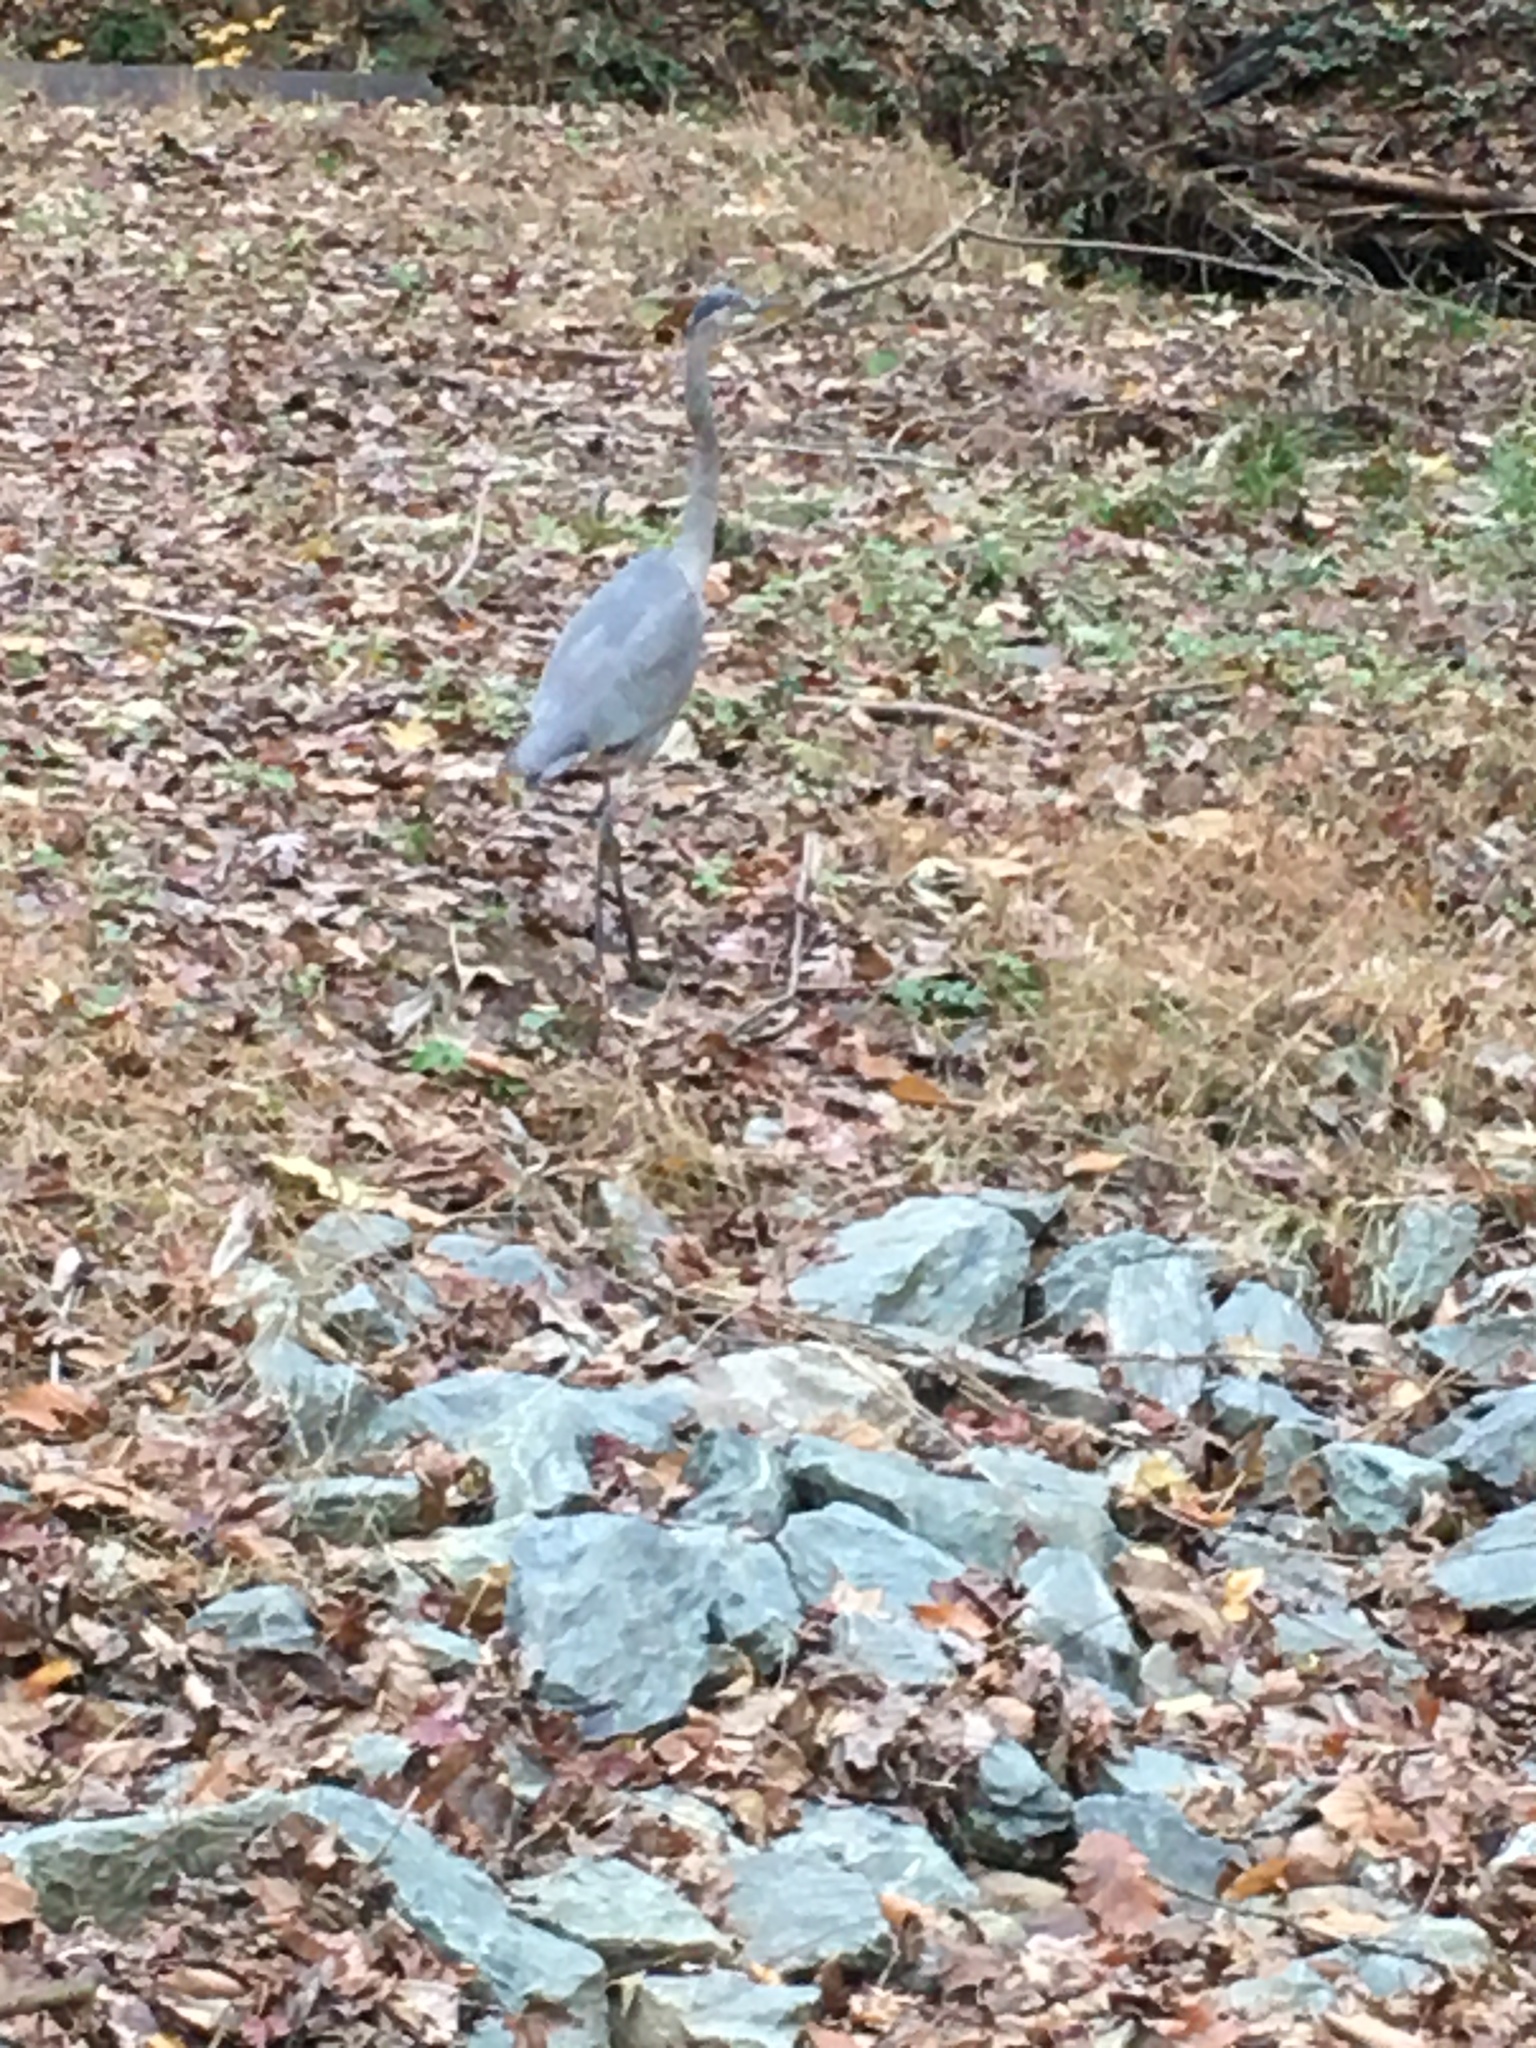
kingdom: Animalia
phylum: Chordata
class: Aves
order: Pelecaniformes
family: Ardeidae
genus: Ardea
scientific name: Ardea herodias
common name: Great blue heron
